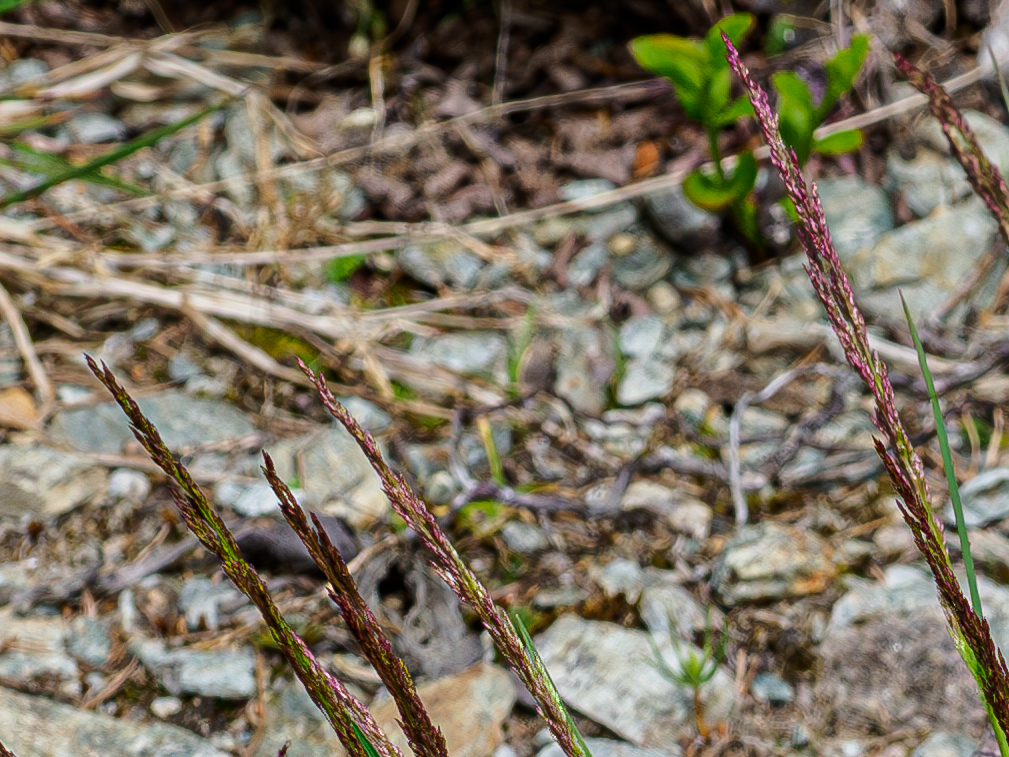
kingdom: Plantae
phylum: Tracheophyta
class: Liliopsida
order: Poales
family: Poaceae
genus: Molinia
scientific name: Molinia caerulea
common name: Purple moor-grass
